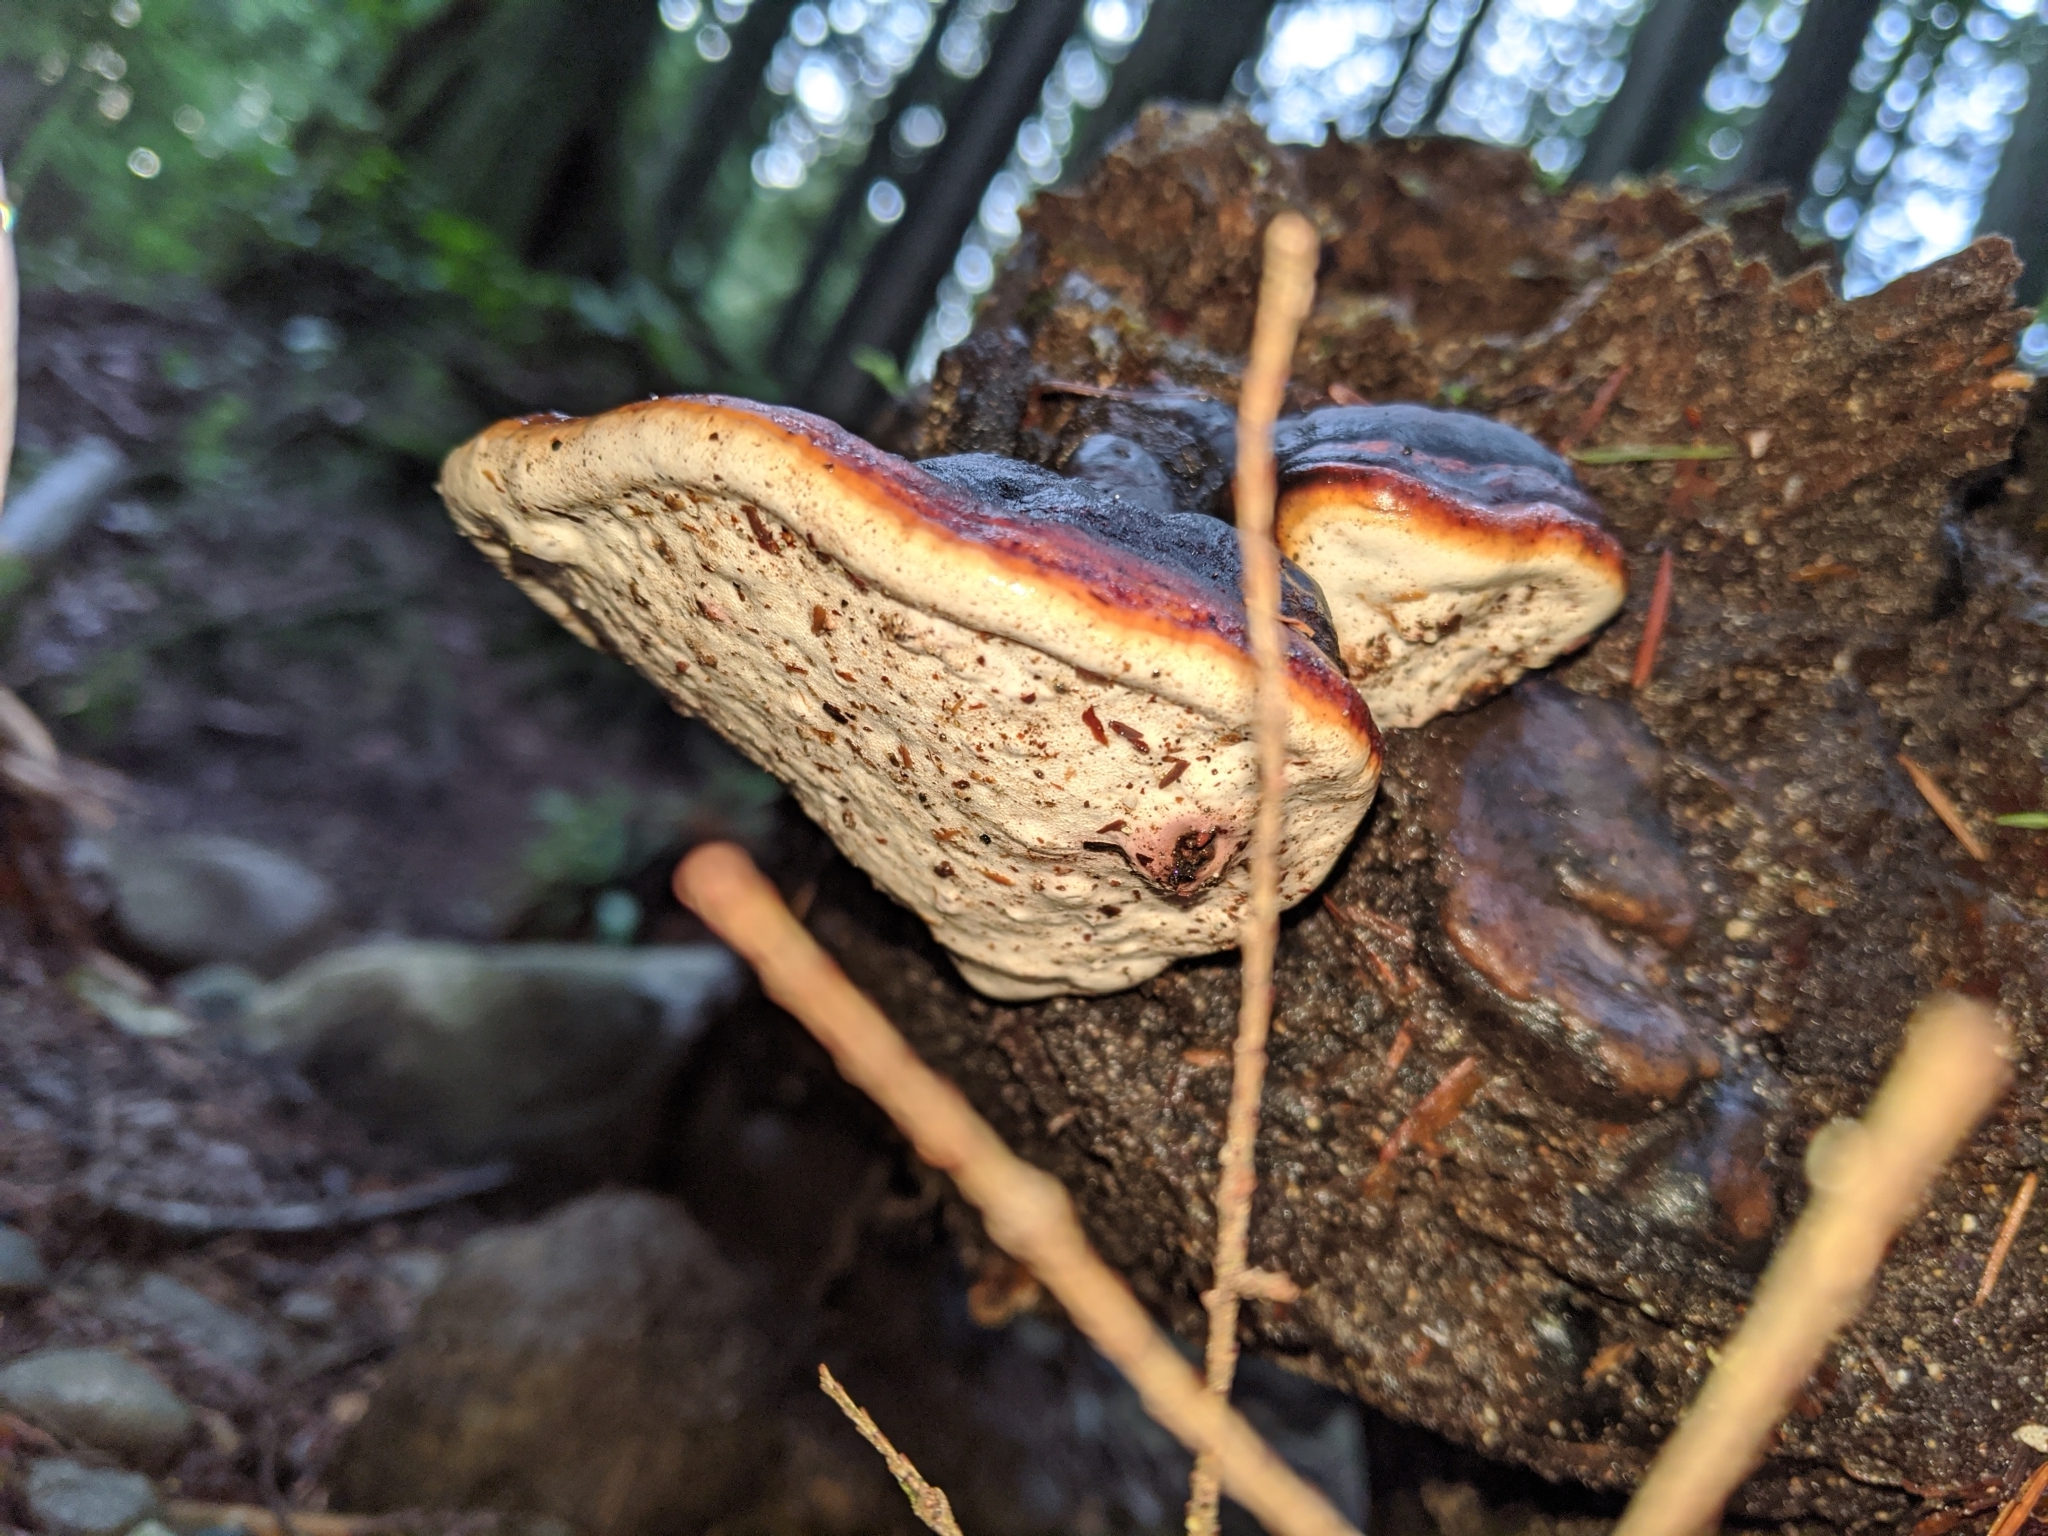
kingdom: Fungi
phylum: Basidiomycota
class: Agaricomycetes
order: Polyporales
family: Fomitopsidaceae
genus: Fomitopsis
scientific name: Fomitopsis mounceae
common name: Northern red belt
